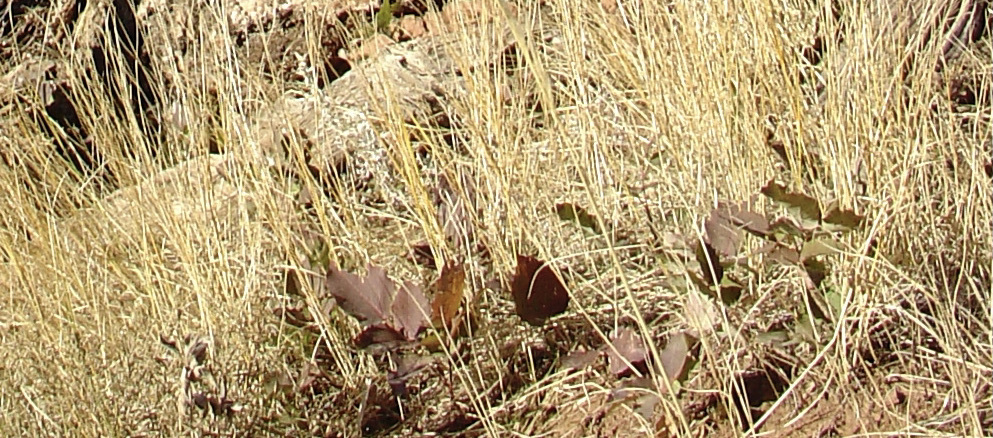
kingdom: Plantae
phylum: Tracheophyta
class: Magnoliopsida
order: Ranunculales
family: Berberidaceae
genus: Mahonia
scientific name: Mahonia repens
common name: Creeping oregon-grape
